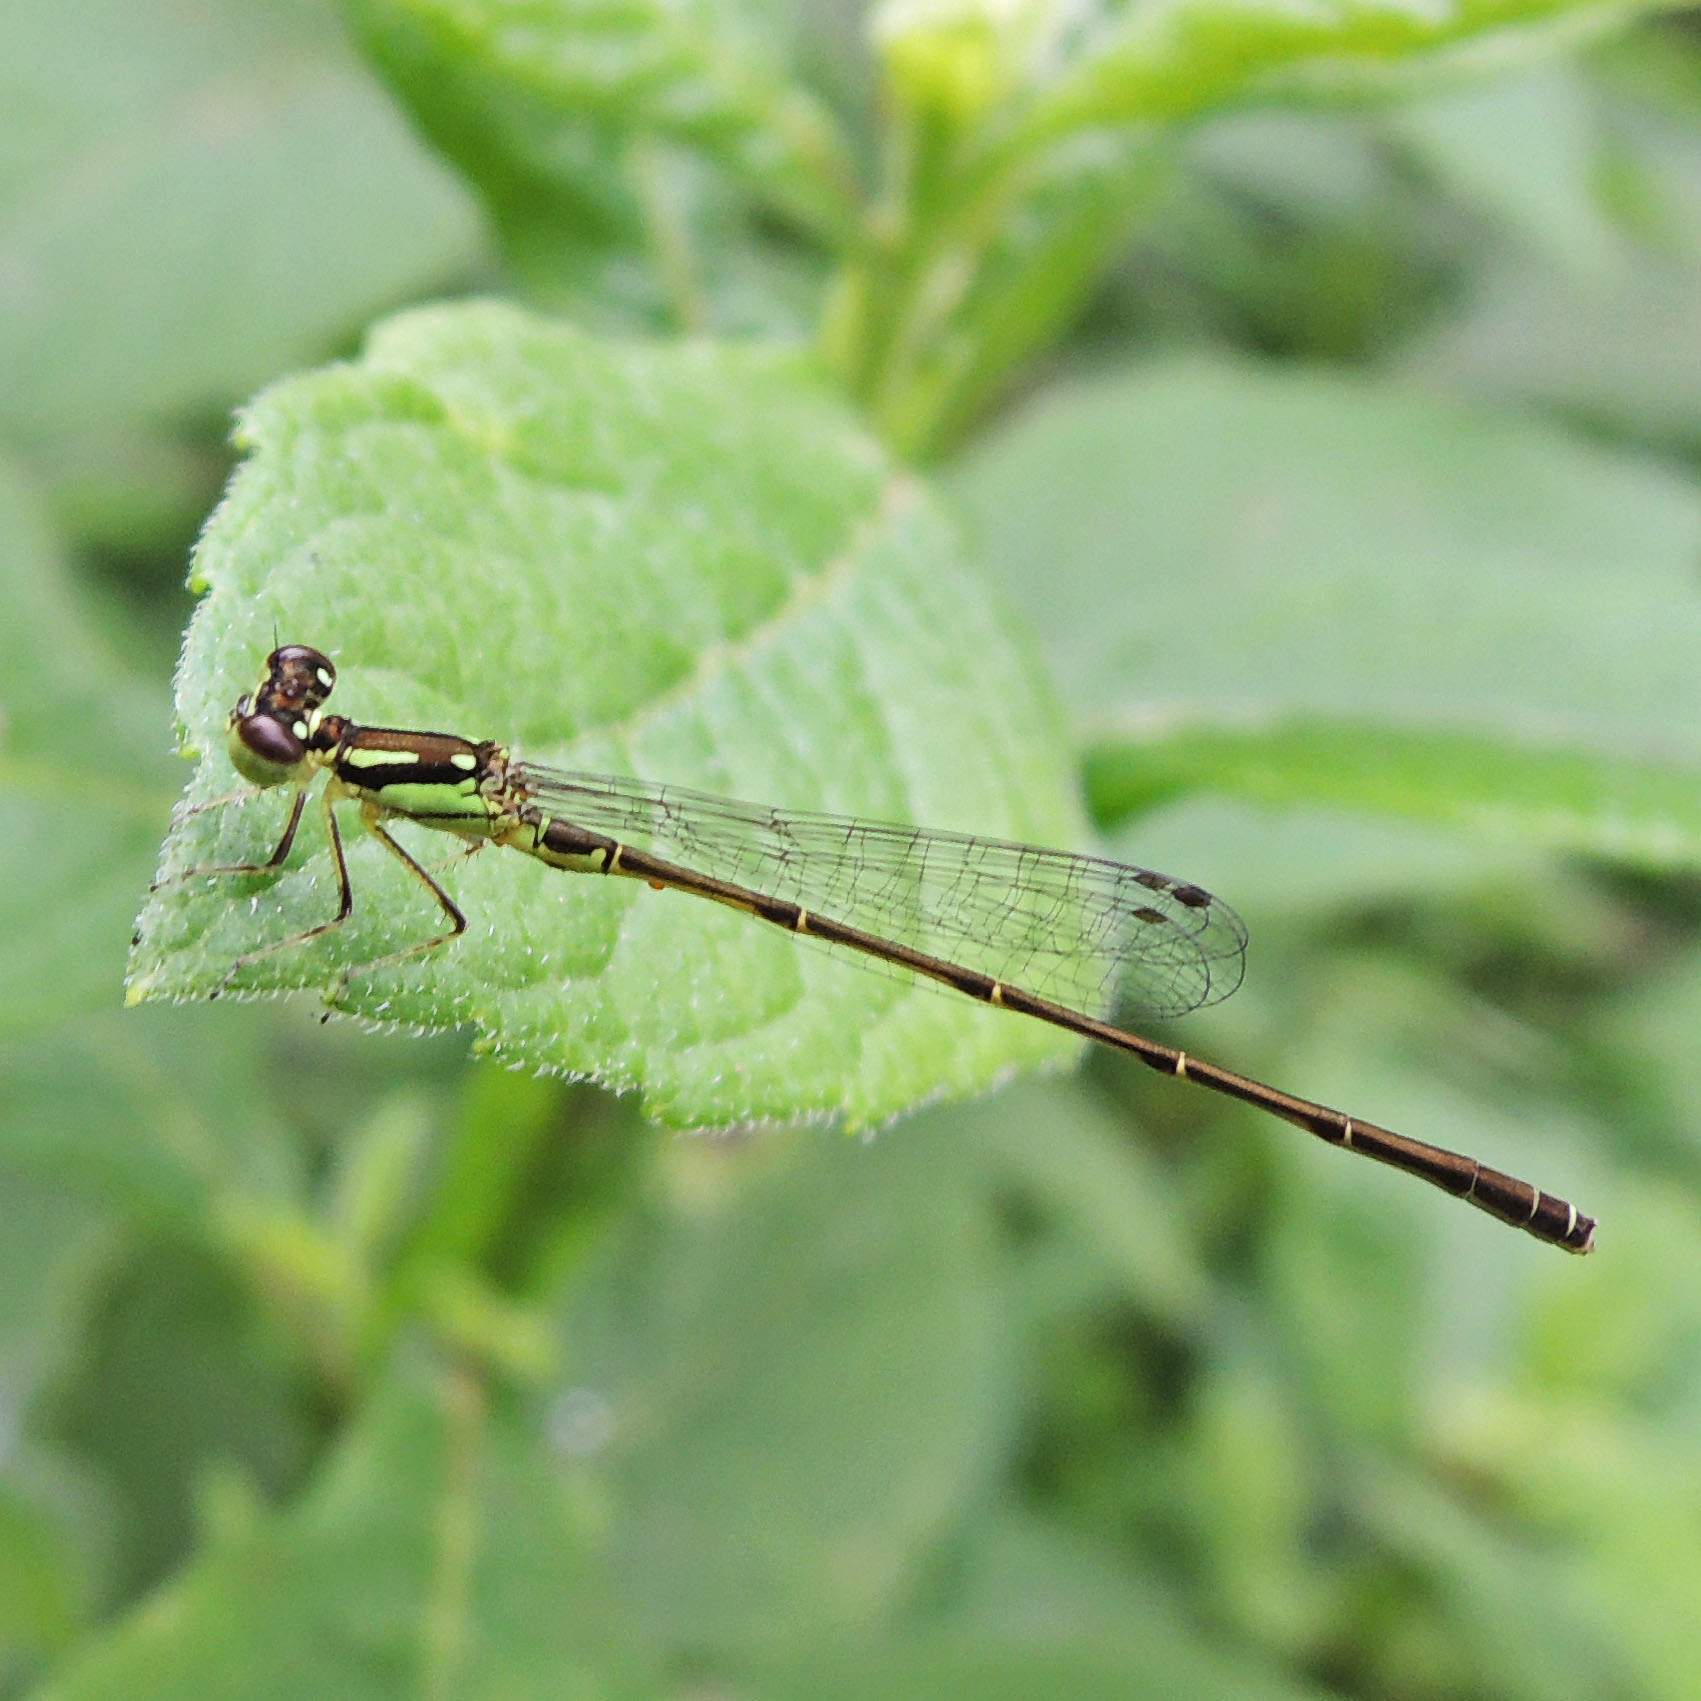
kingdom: Animalia
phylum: Arthropoda
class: Insecta
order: Odonata
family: Coenagrionidae
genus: Ischnura
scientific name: Ischnura posita
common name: Fragile forktail
